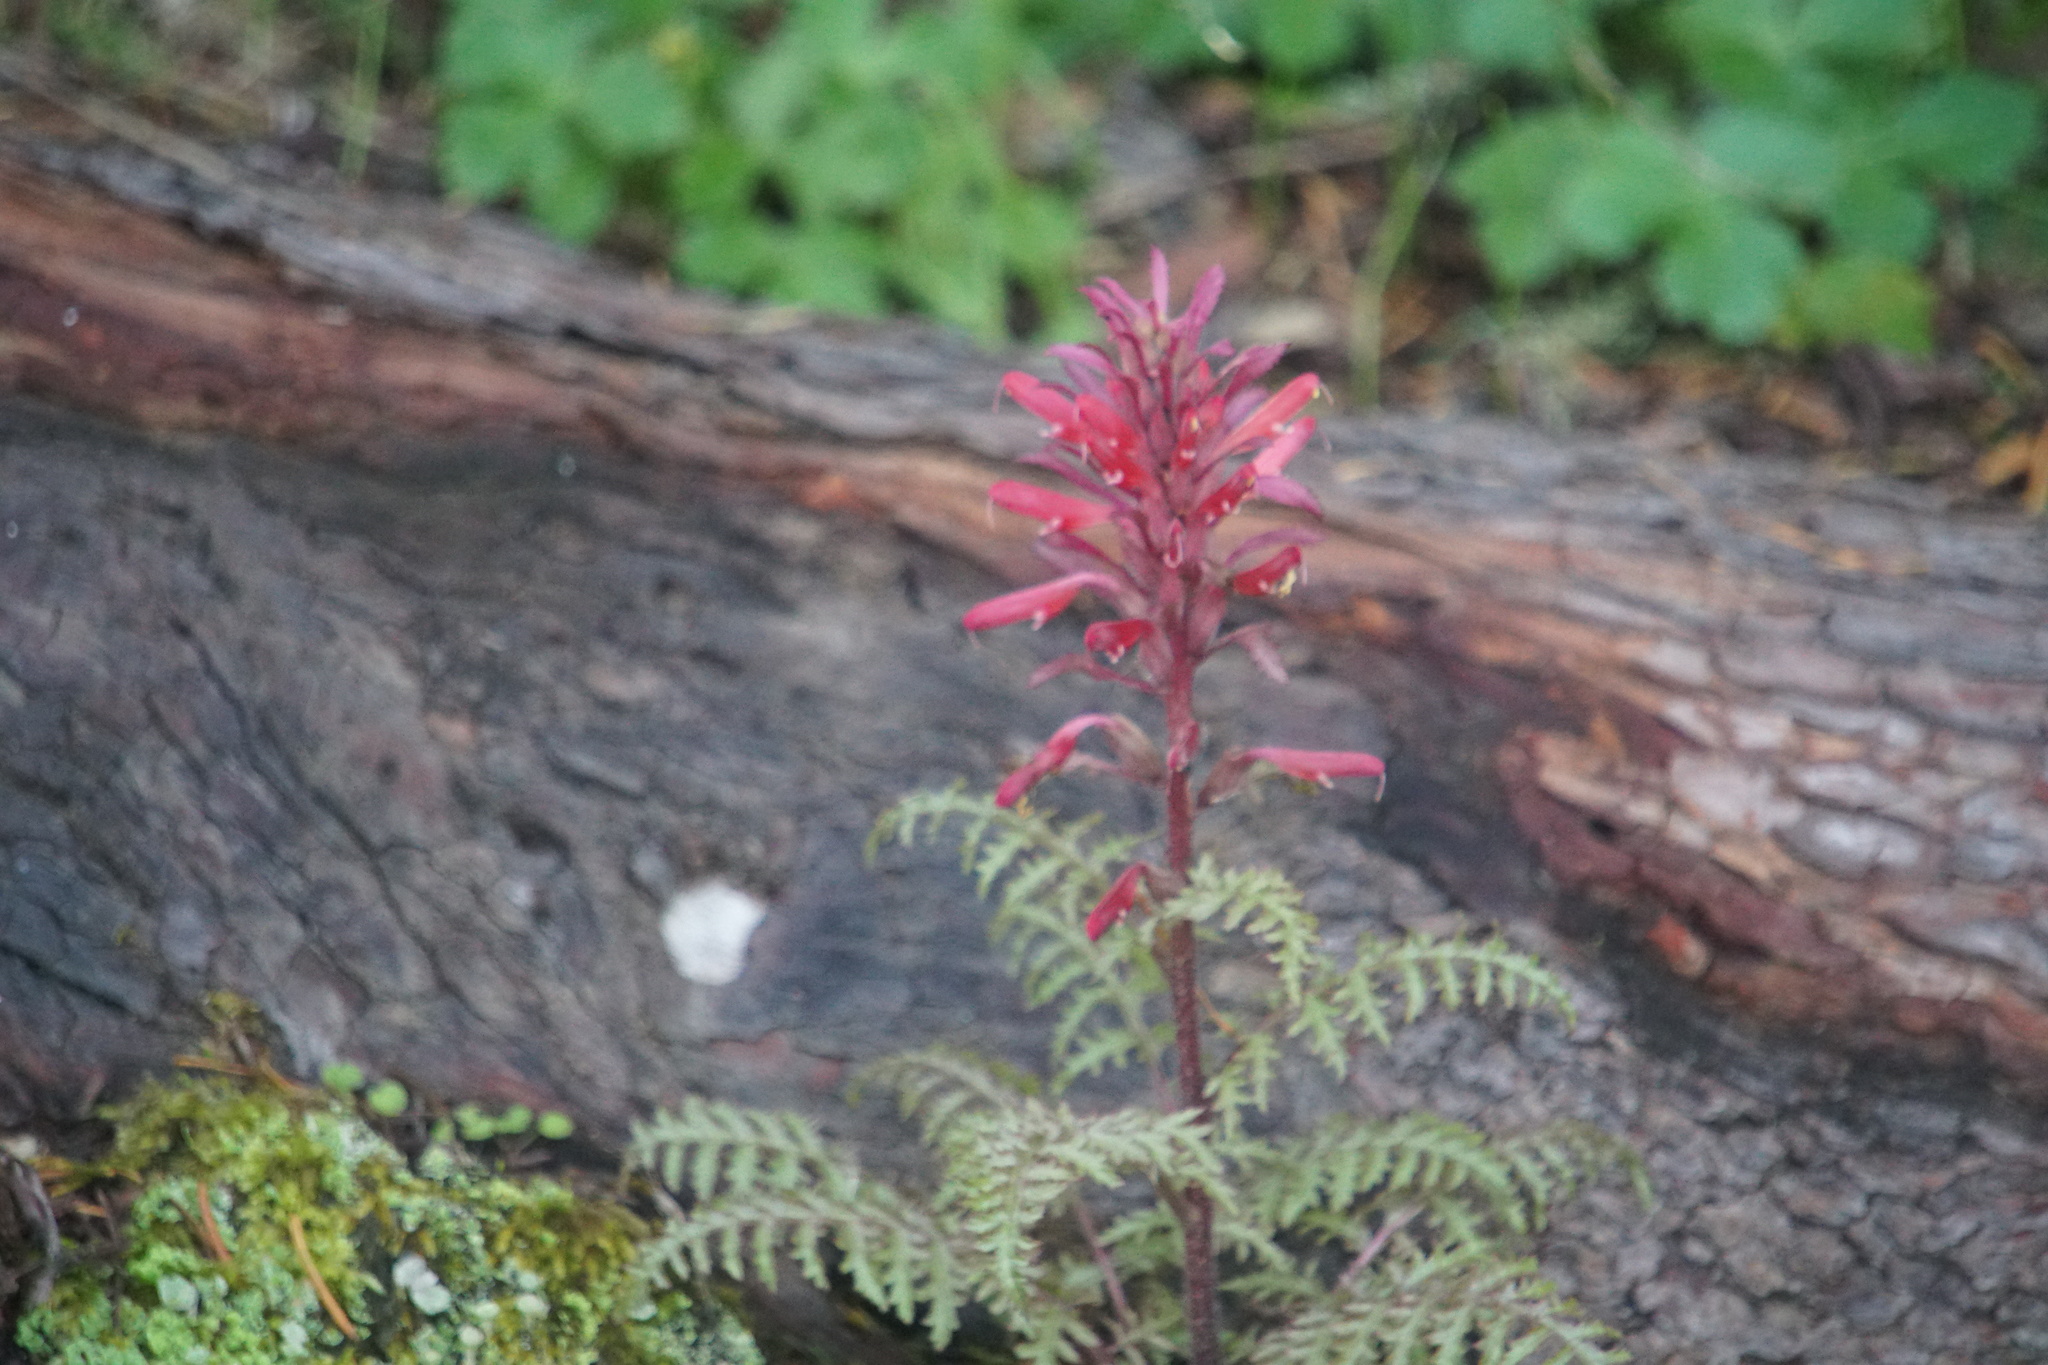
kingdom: Plantae
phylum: Tracheophyta
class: Magnoliopsida
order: Lamiales
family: Orobanchaceae
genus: Pedicularis
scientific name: Pedicularis densiflora
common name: Indian warrior
